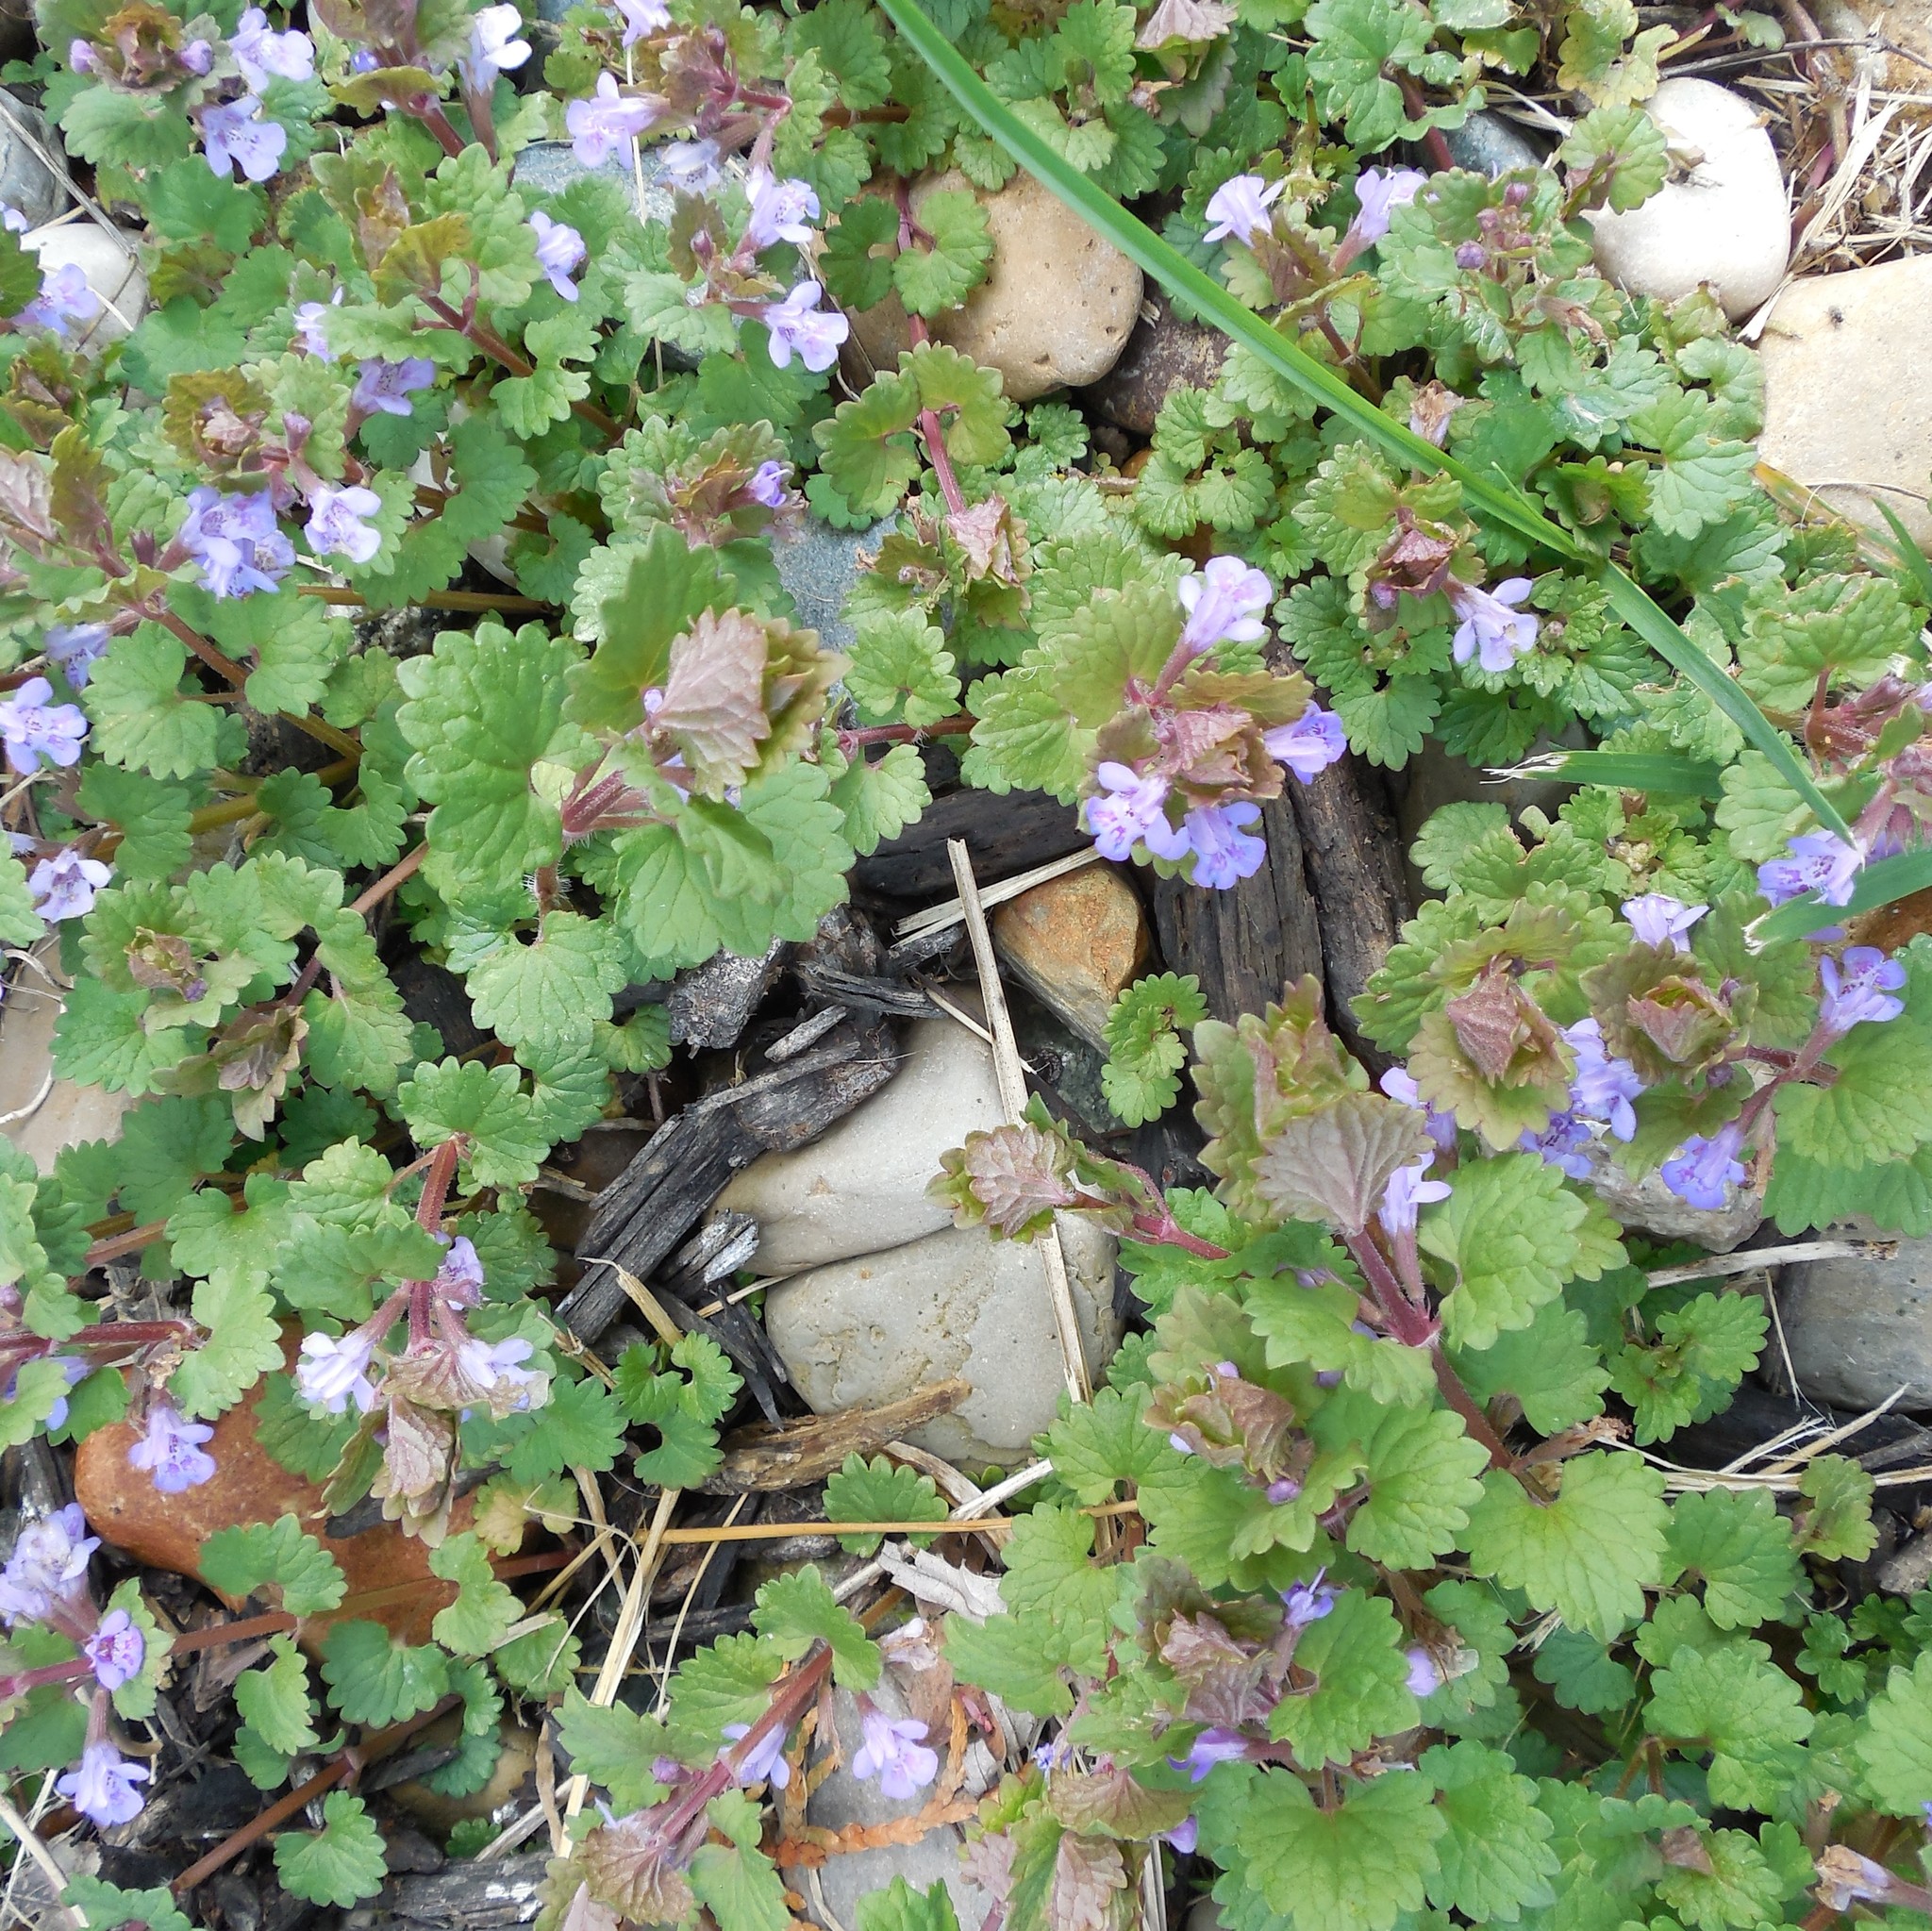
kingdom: Plantae
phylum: Tracheophyta
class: Magnoliopsida
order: Lamiales
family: Lamiaceae
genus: Glechoma
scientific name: Glechoma hederacea
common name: Ground ivy
